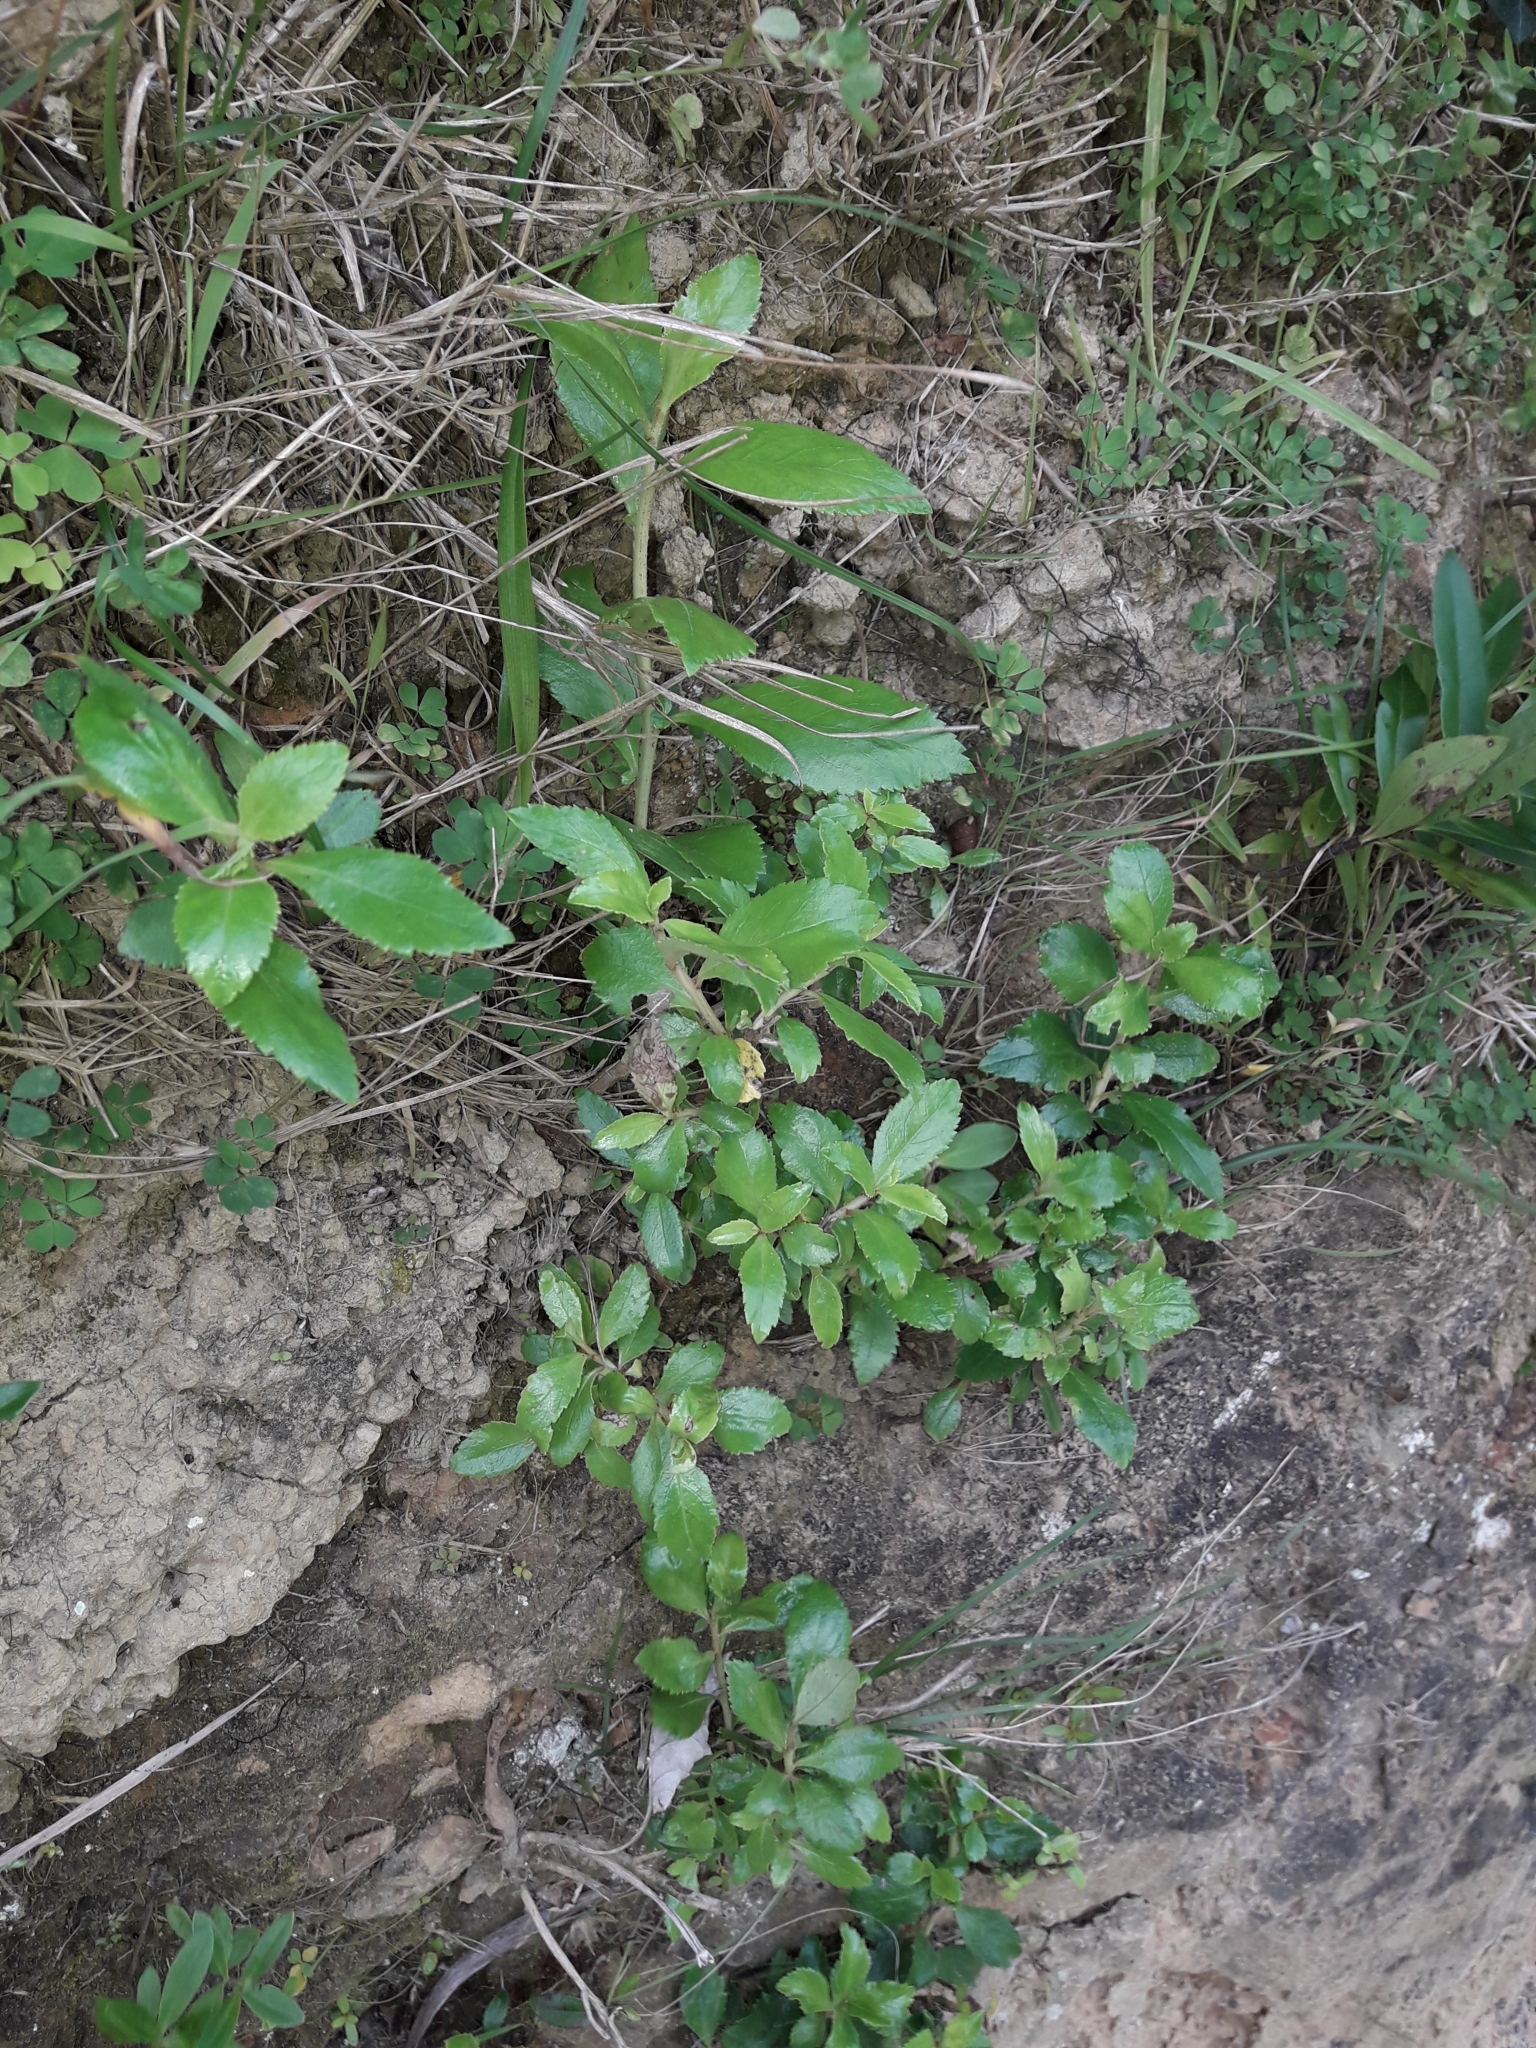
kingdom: Plantae
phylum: Tracheophyta
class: Magnoliopsida
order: Escalloniales
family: Escalloniaceae
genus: Escallonia
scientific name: Escallonia rubra
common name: Redclaws
